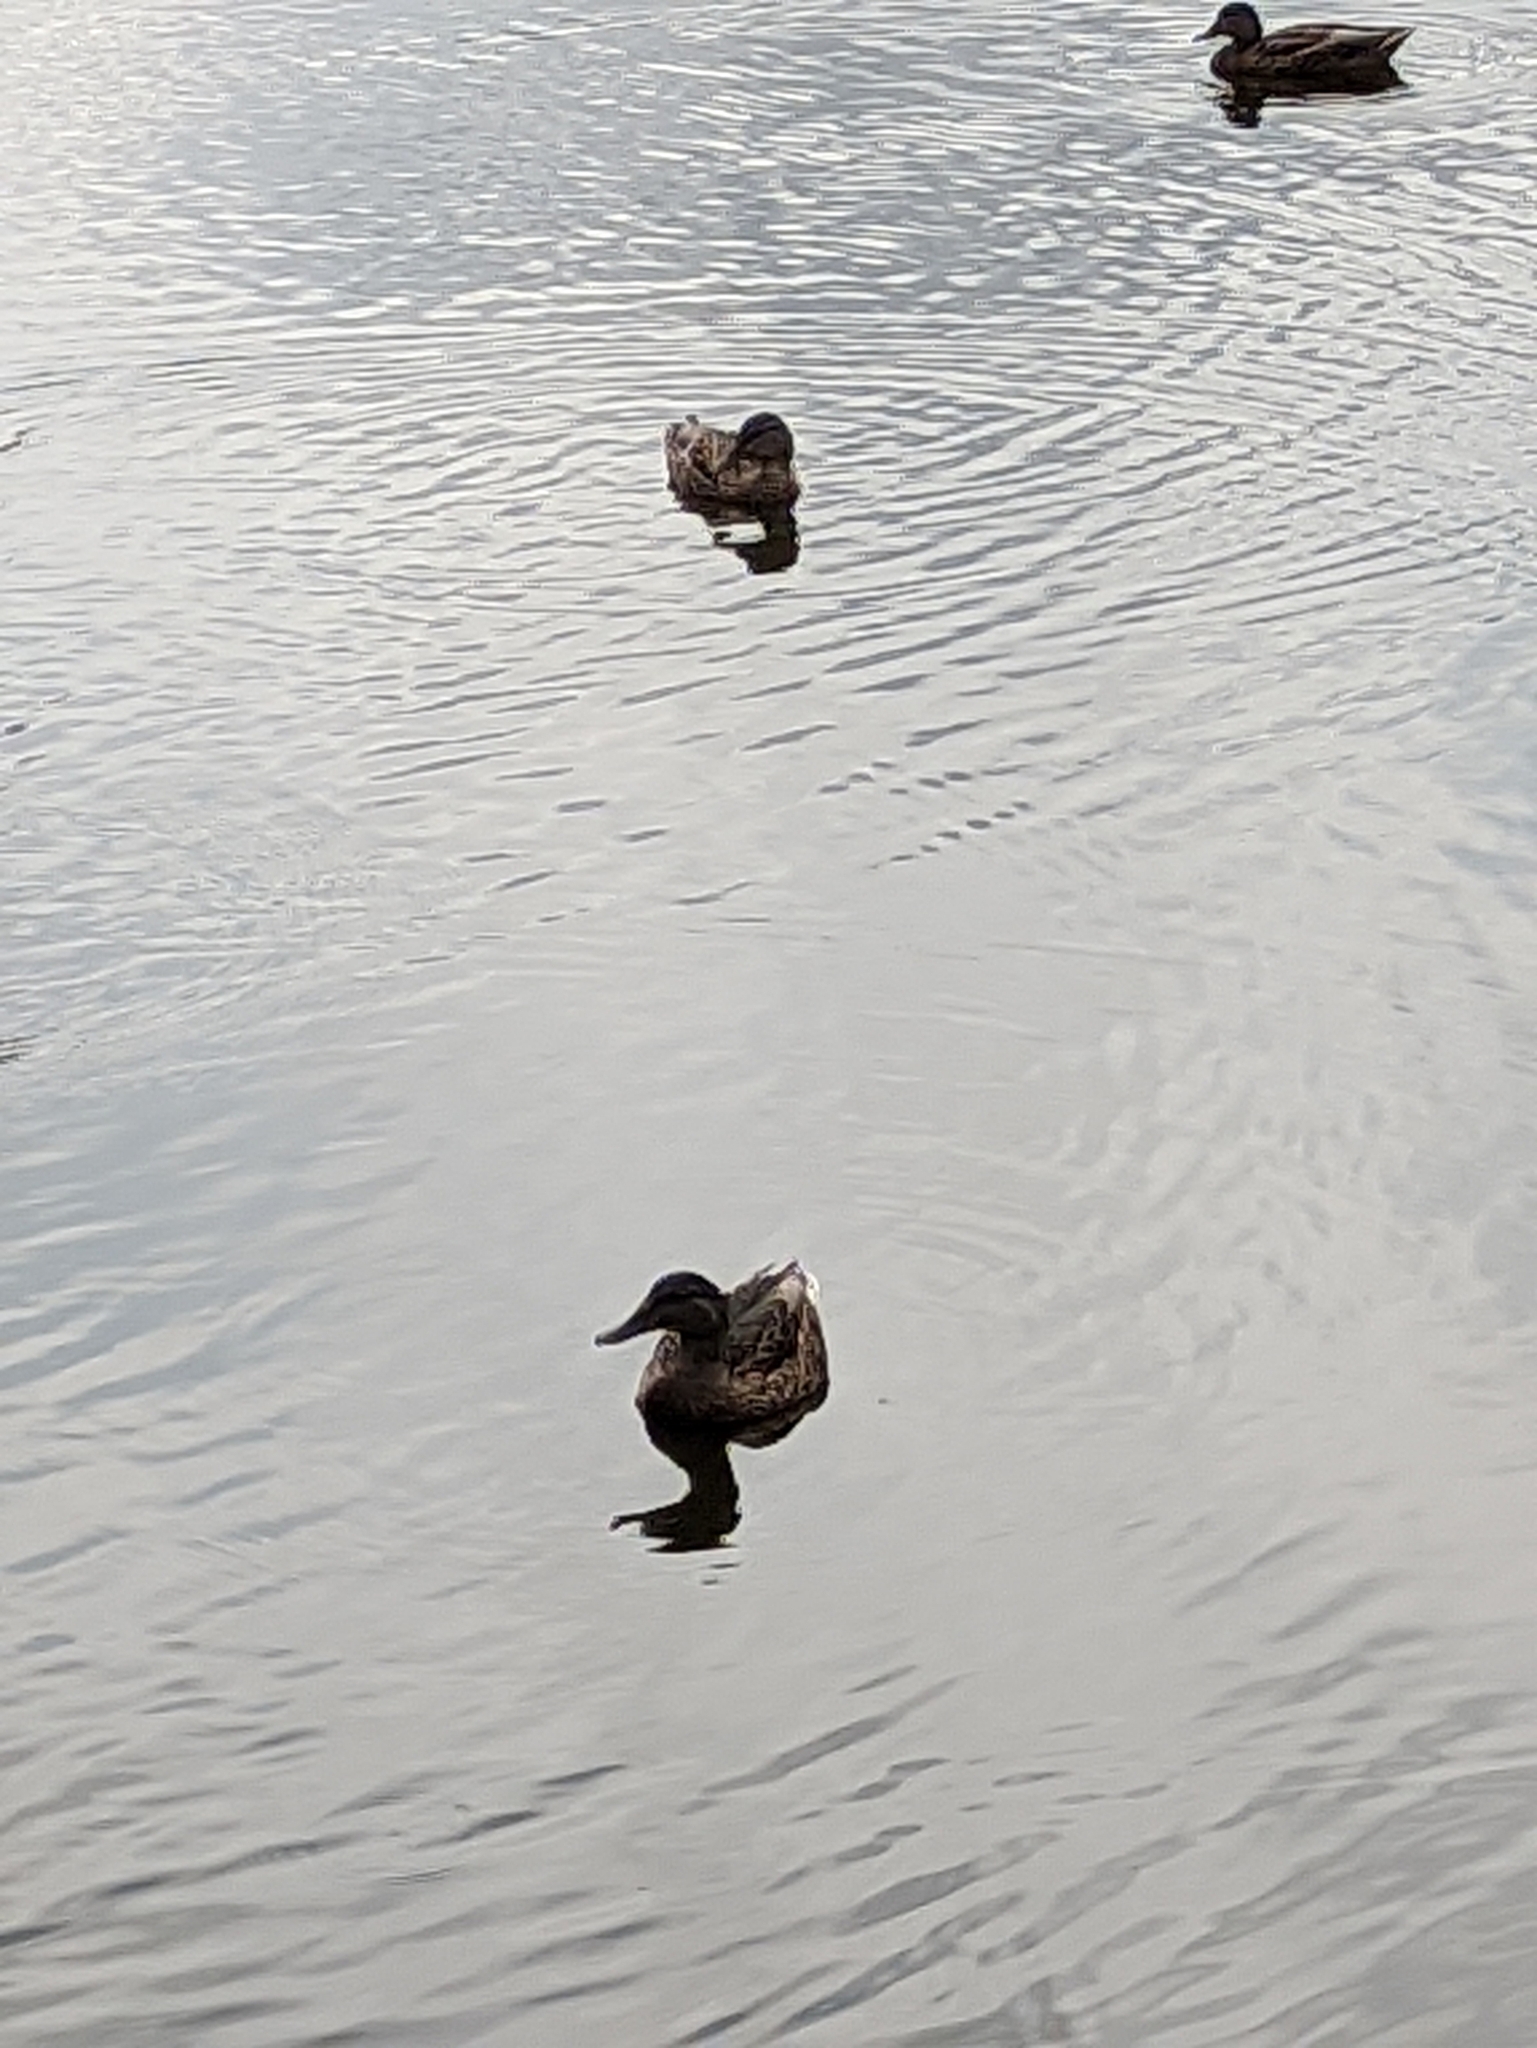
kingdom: Animalia
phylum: Chordata
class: Aves
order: Anseriformes
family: Anatidae
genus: Anas
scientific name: Anas platyrhynchos
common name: Mallard
